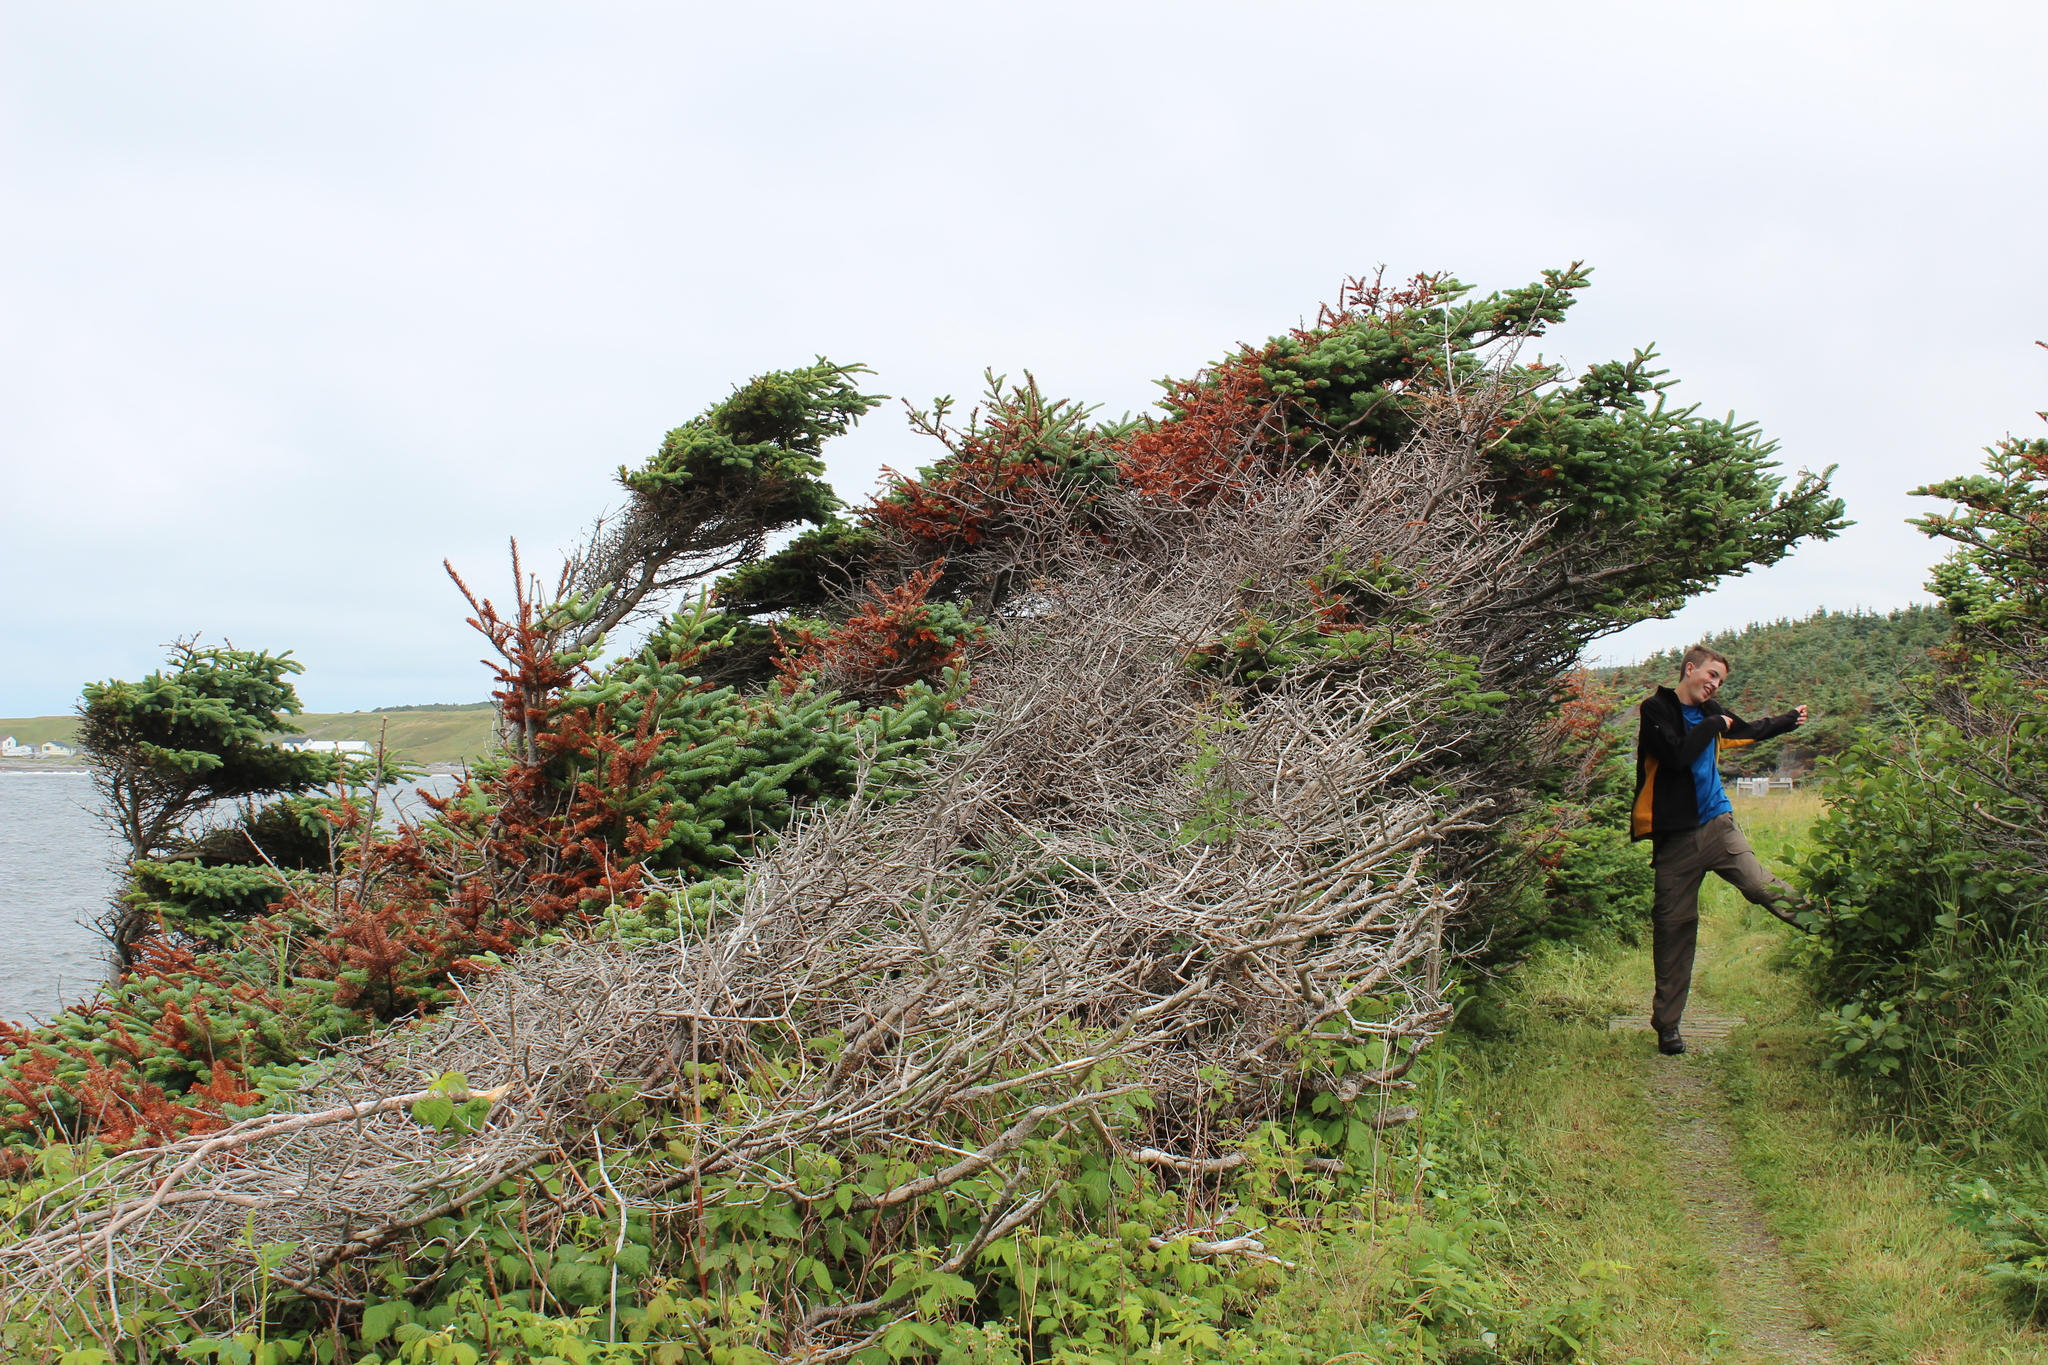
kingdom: Plantae
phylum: Tracheophyta
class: Pinopsida
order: Pinales
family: Pinaceae
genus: Picea
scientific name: Picea glauca
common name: White spruce
